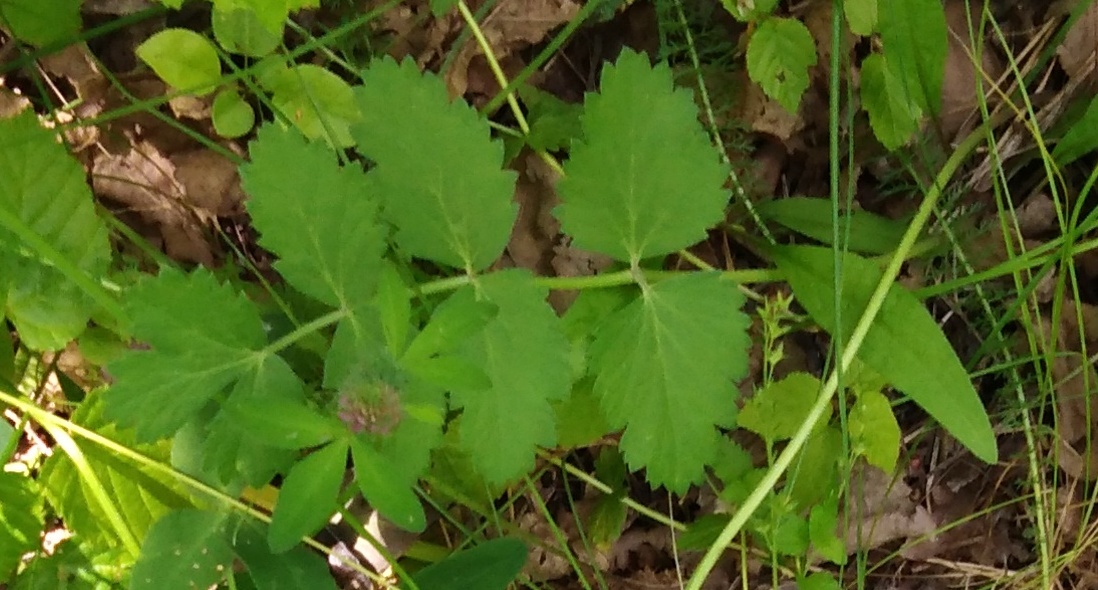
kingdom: Plantae
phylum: Tracheophyta
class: Magnoliopsida
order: Apiales
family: Apiaceae
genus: Pimpinella
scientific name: Pimpinella saxifraga
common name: Burnet-saxifrage
